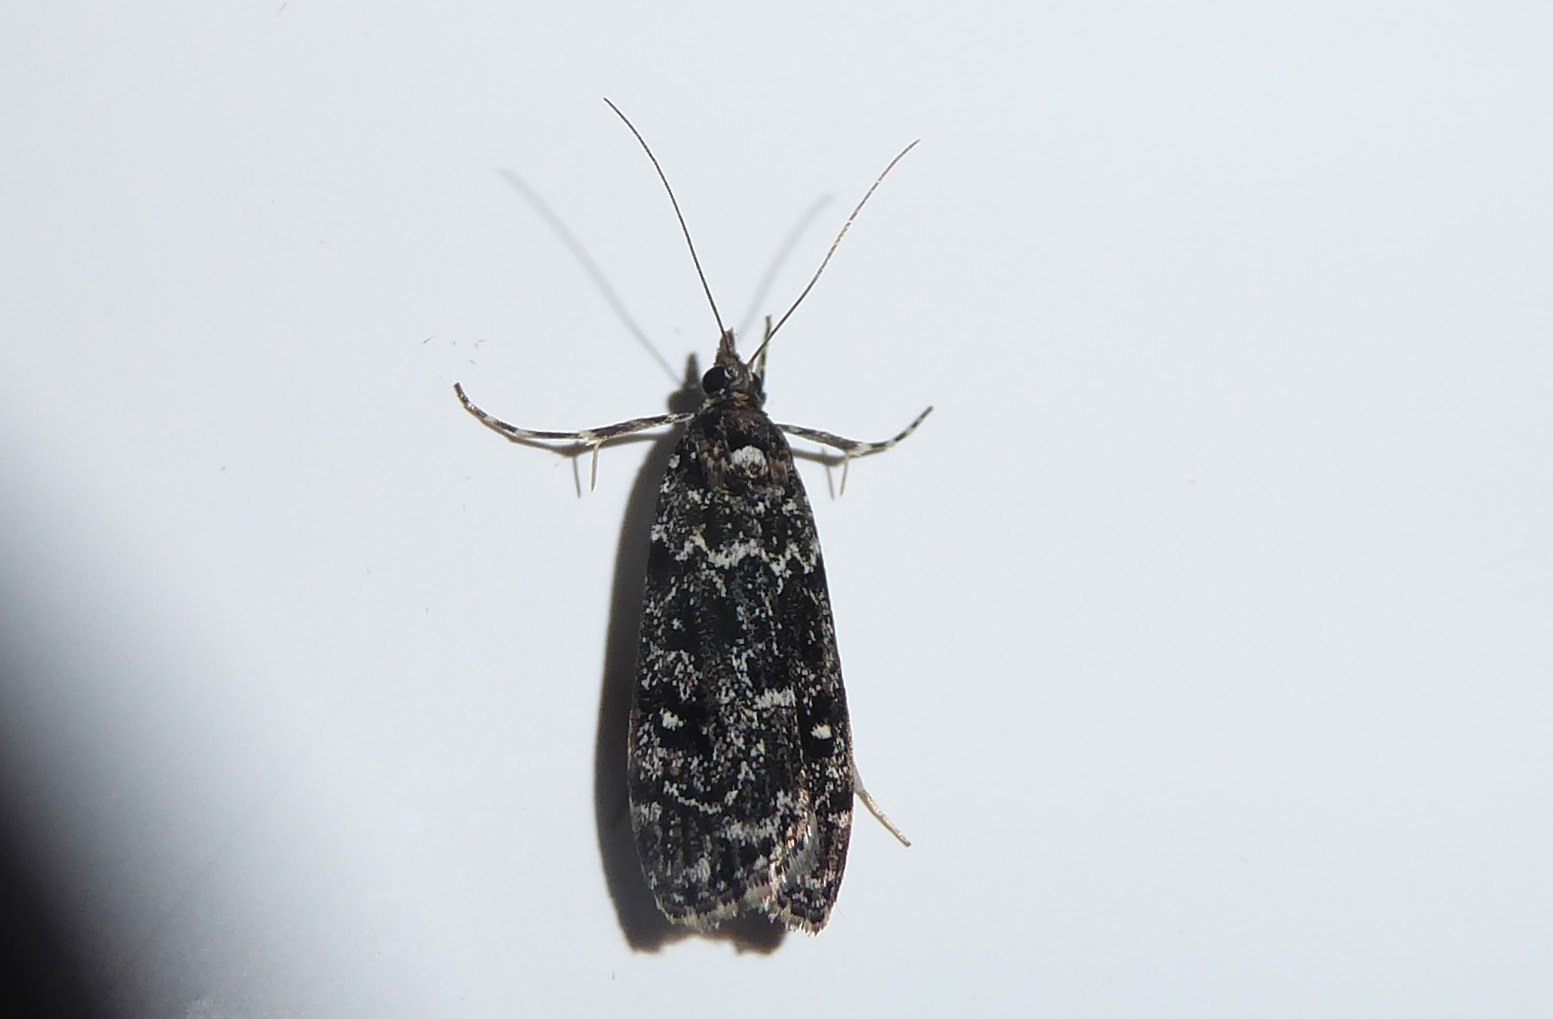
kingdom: Animalia
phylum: Arthropoda
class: Insecta
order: Lepidoptera
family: Crambidae
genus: Eudonia
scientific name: Eudonia philerga
